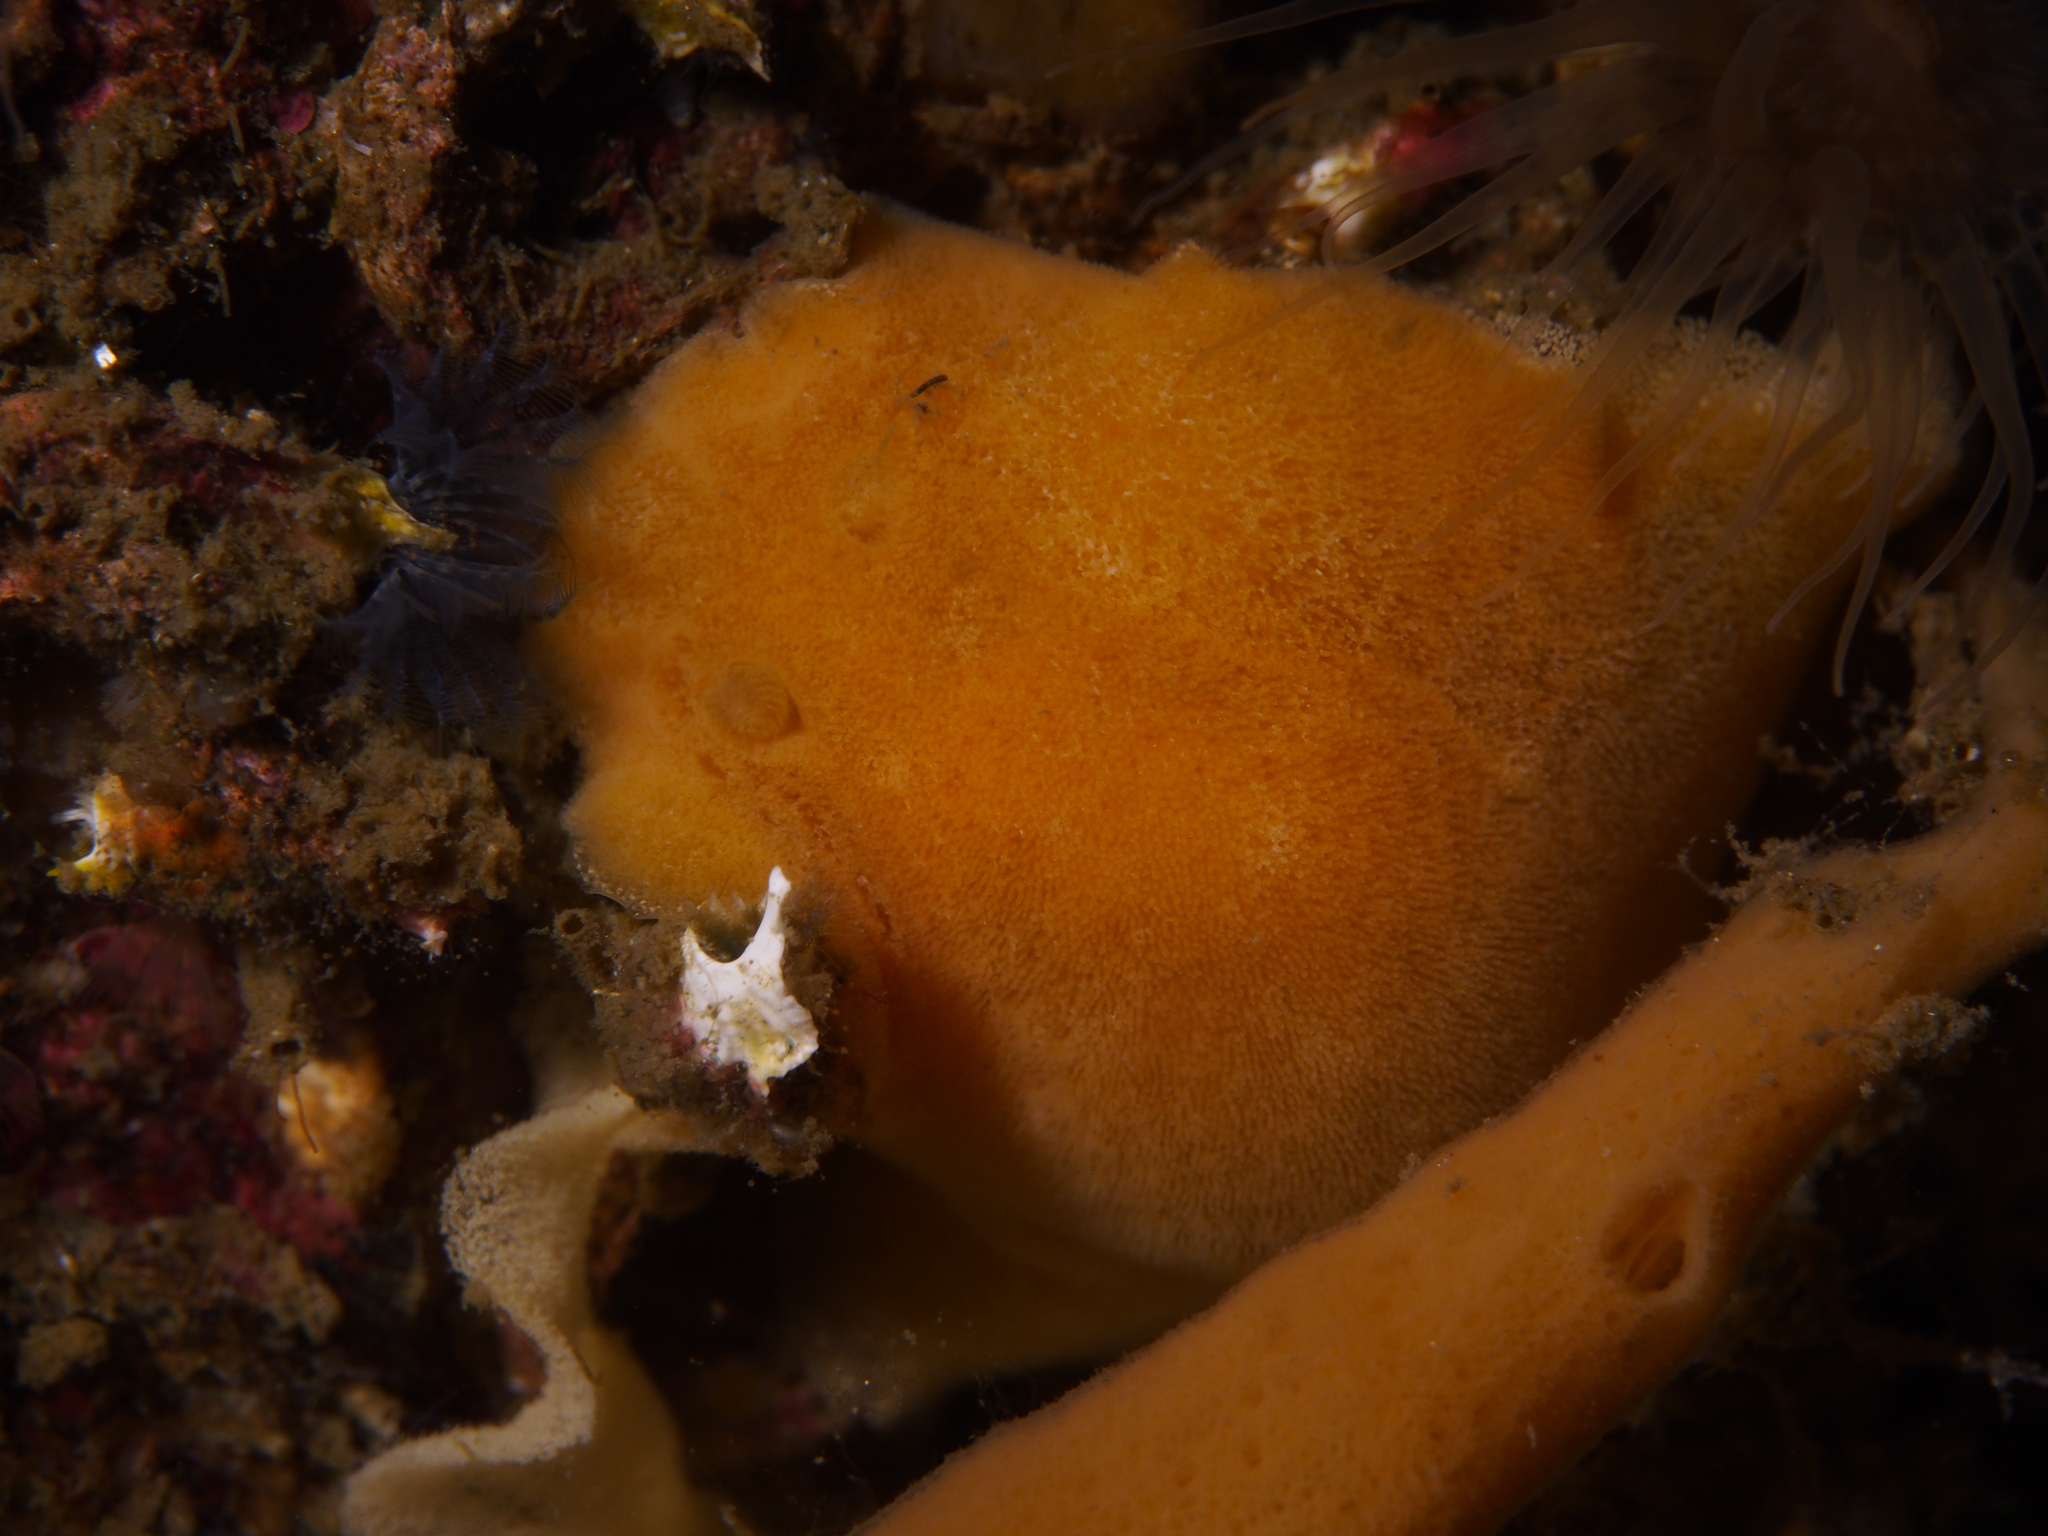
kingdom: Animalia
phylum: Mollusca
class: Gastropoda
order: Nudibranchia
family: Discodorididae
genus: Jorunna
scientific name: Jorunna tomentosa
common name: Grey sea slug
